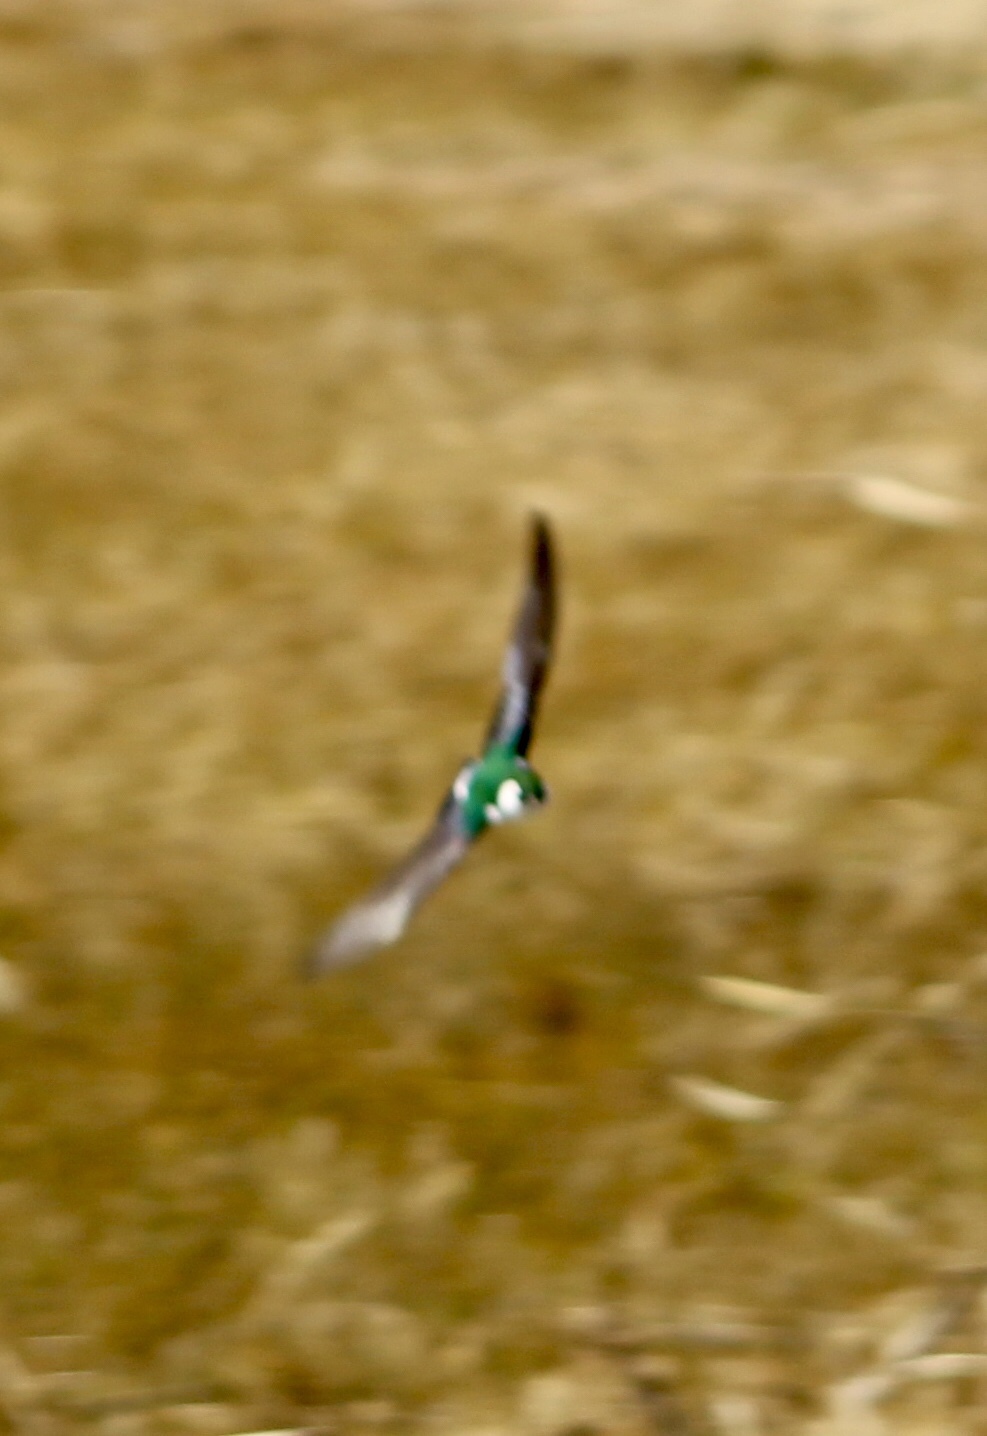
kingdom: Animalia
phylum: Chordata
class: Aves
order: Passeriformes
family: Hirundinidae
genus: Tachycineta
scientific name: Tachycineta thalassina
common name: Violet-green swallow
